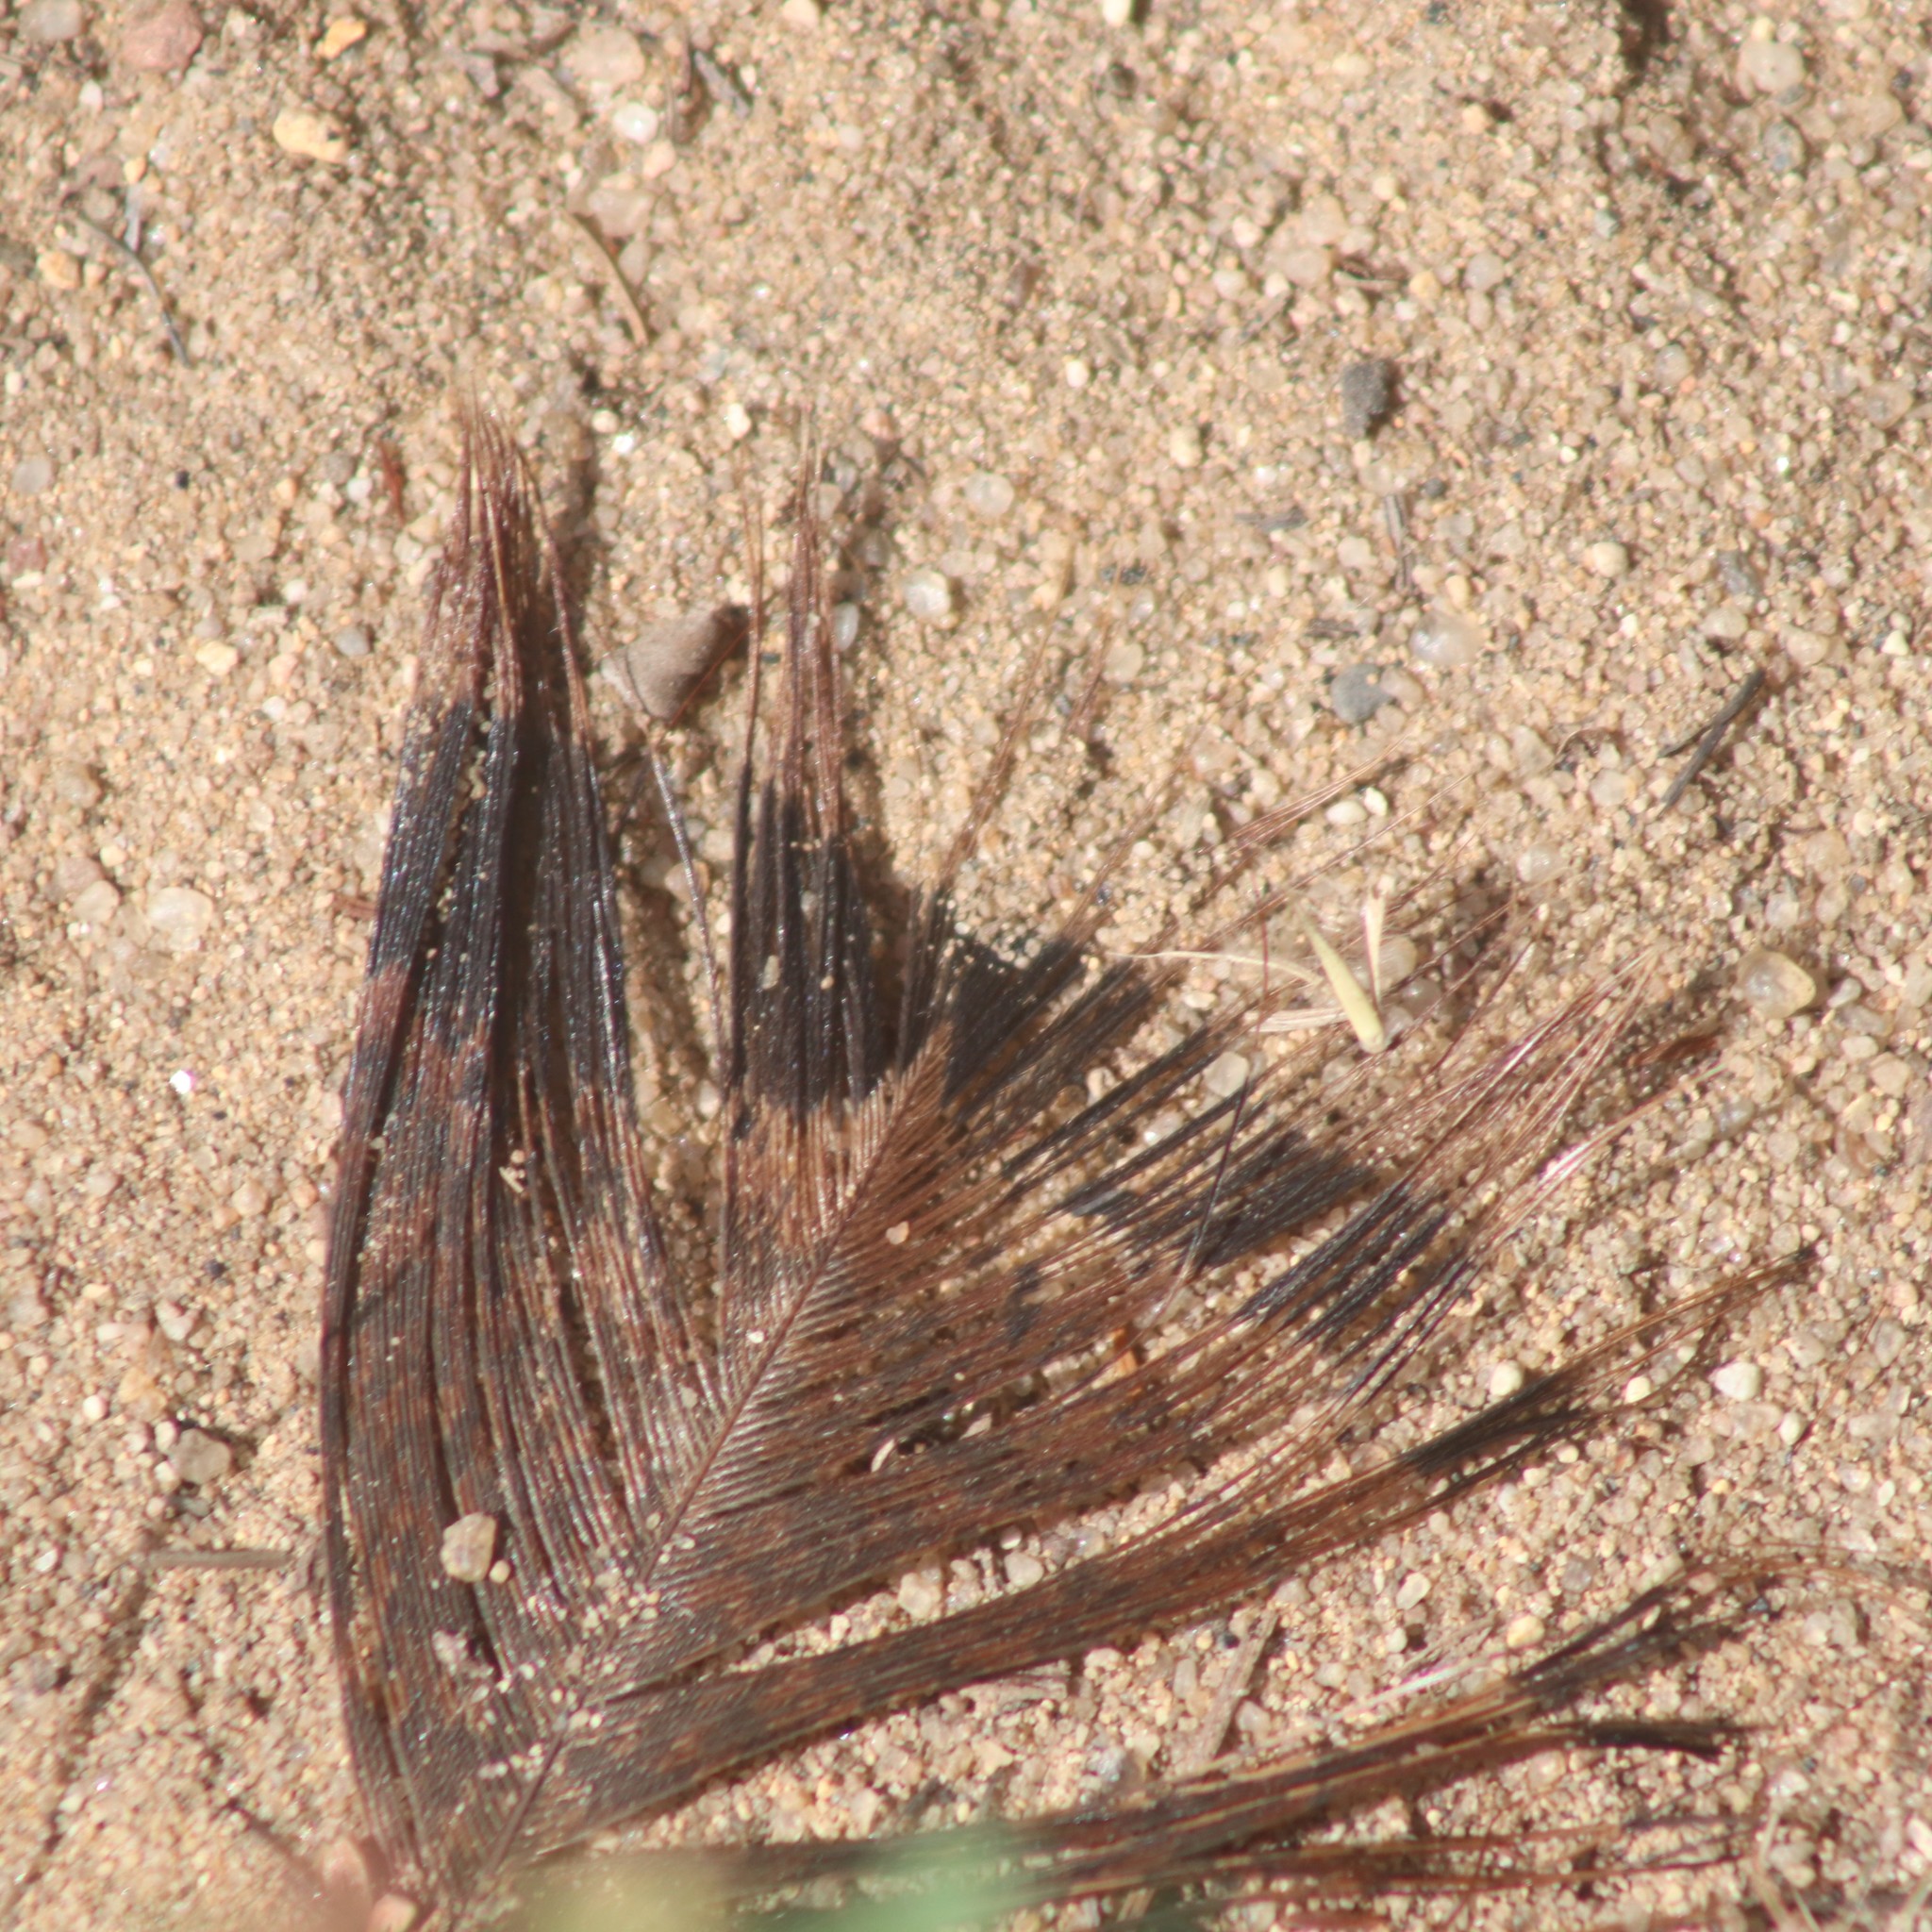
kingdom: Animalia
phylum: Chordata
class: Aves
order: Galliformes
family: Phasianidae
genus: Meleagris
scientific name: Meleagris gallopavo
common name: Wild turkey
